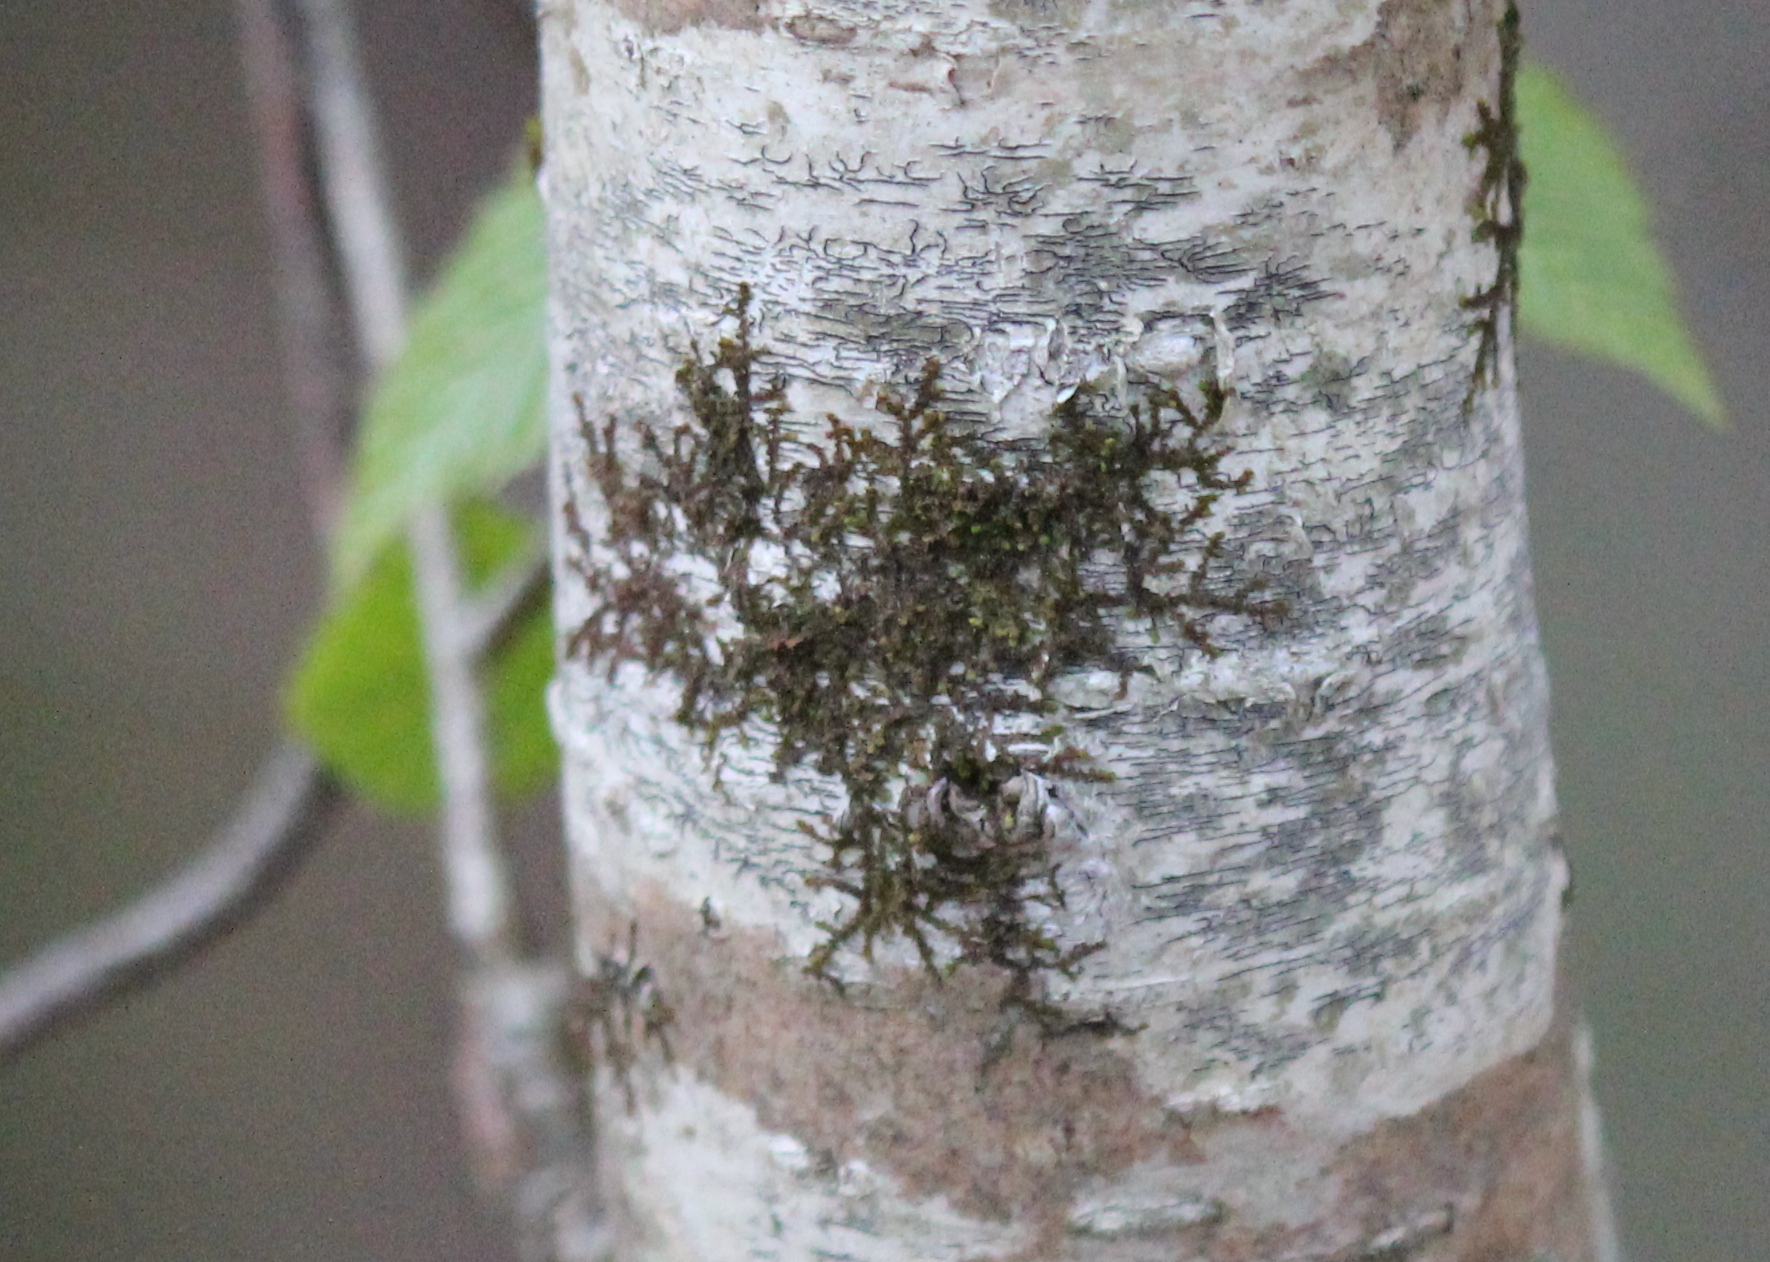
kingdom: Plantae
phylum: Marchantiophyta
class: Jungermanniopsida
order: Porellales
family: Frullaniaceae
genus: Frullania
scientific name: Frullania eboracensis
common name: New york scalewort
